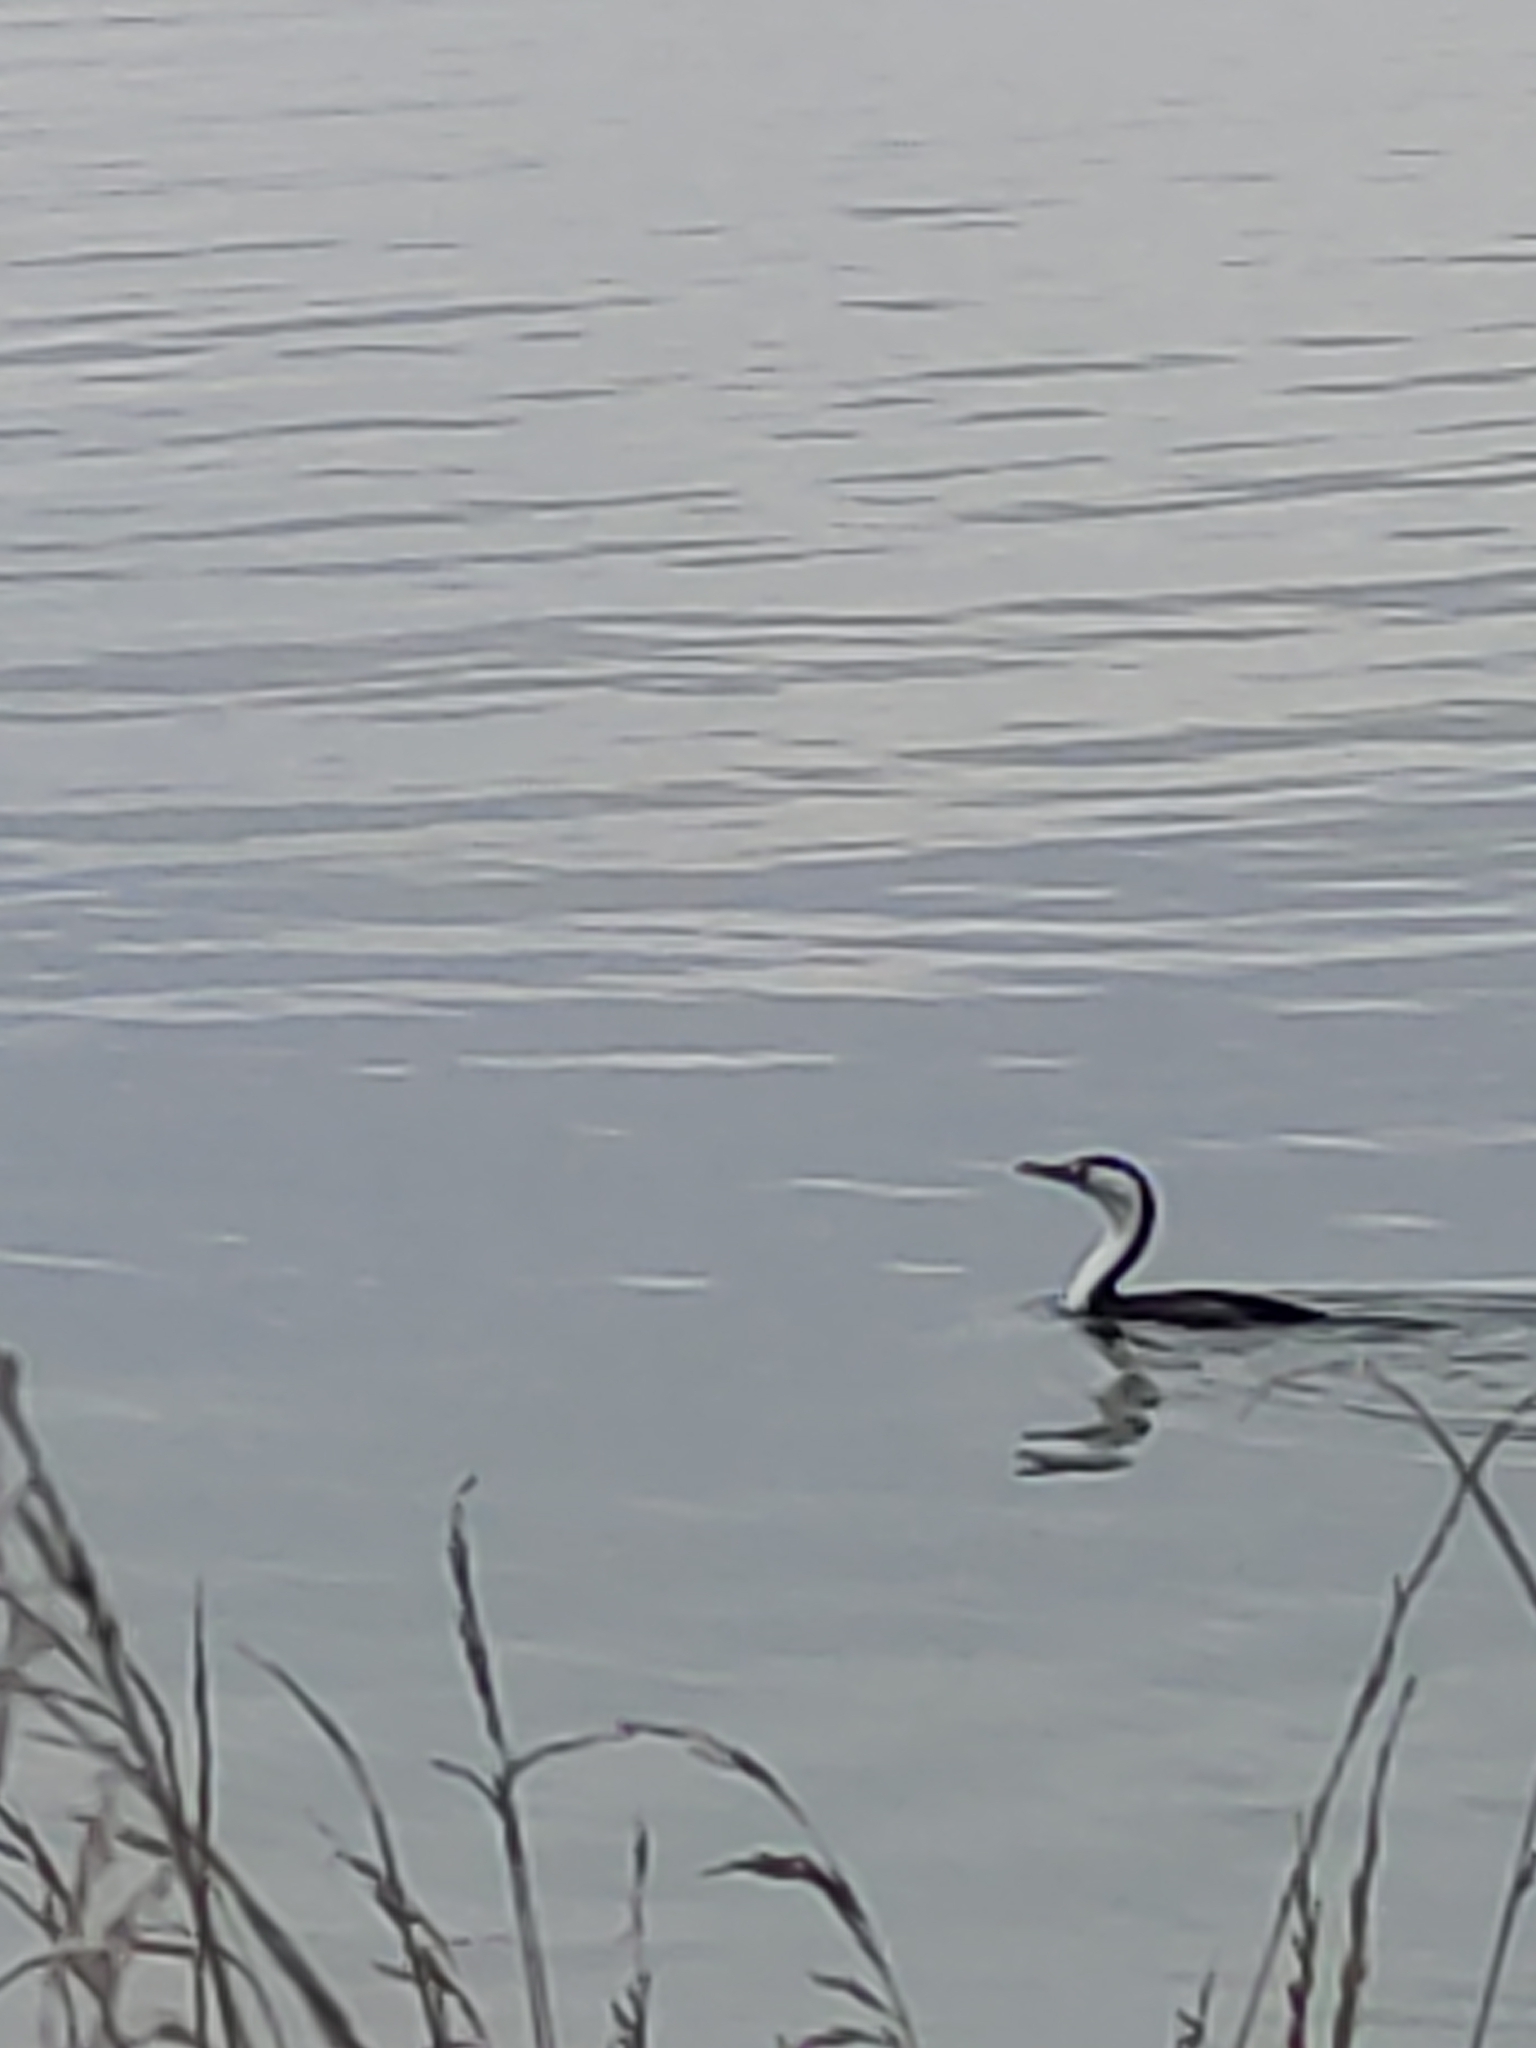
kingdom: Animalia
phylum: Chordata
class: Aves
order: Suliformes
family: Phalacrocoracidae
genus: Phalacrocorax
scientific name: Phalacrocorax varius
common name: Pied cormorant
